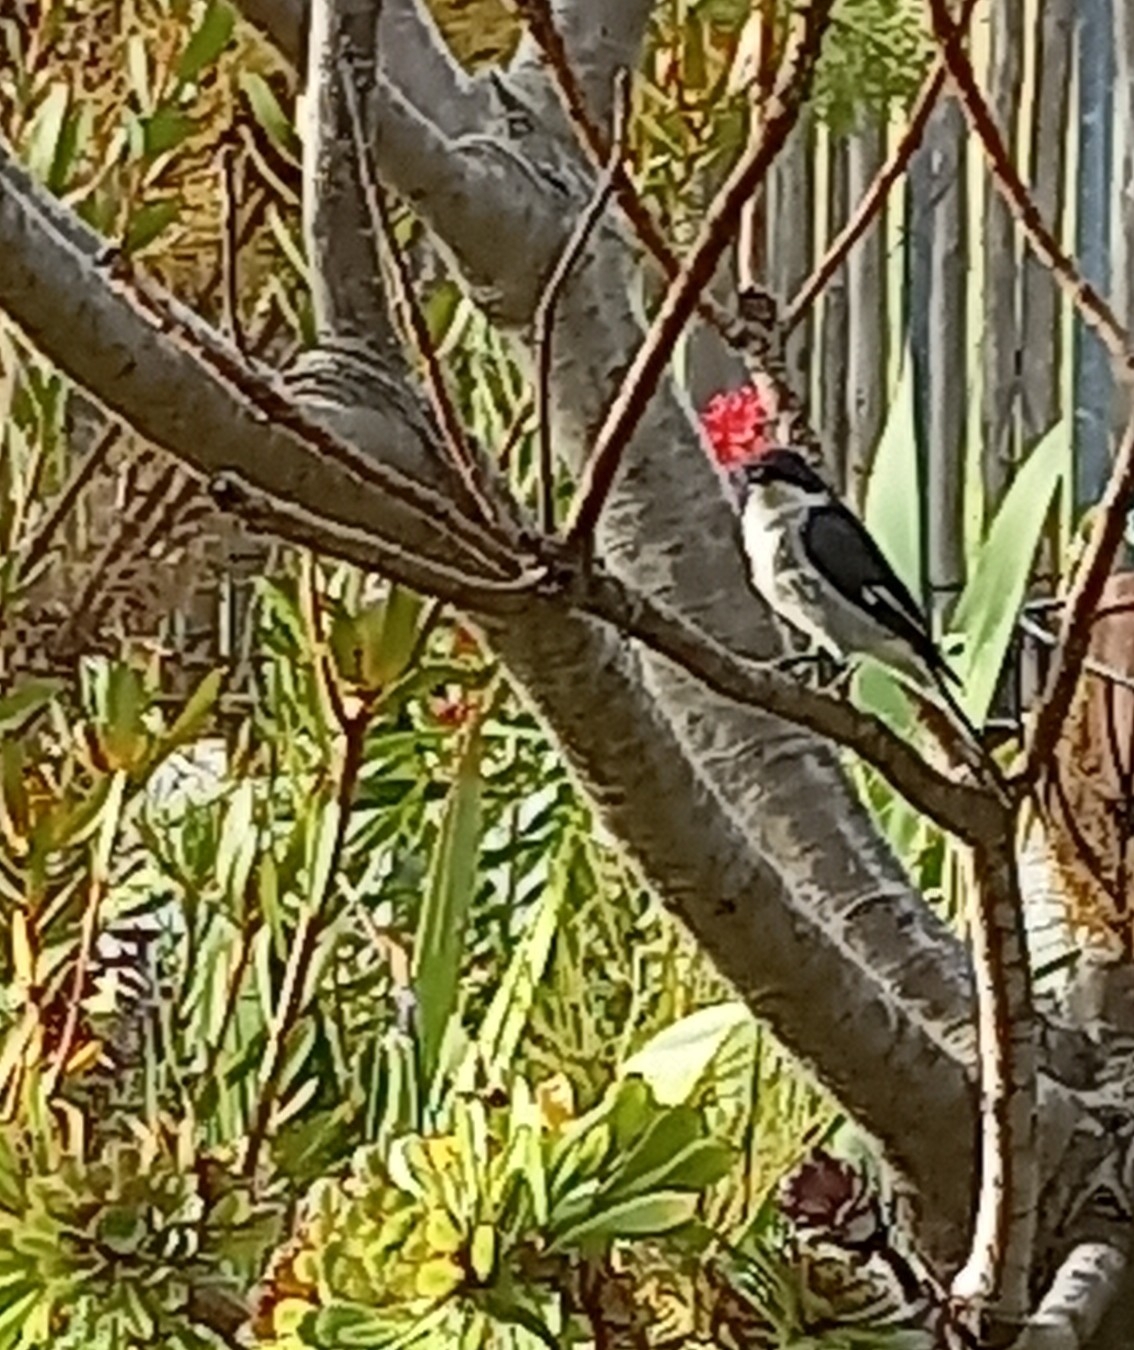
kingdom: Animalia
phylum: Chordata
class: Aves
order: Passeriformes
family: Muscicapidae
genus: Sigelus
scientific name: Sigelus silens
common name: Fiscal flycatcher
